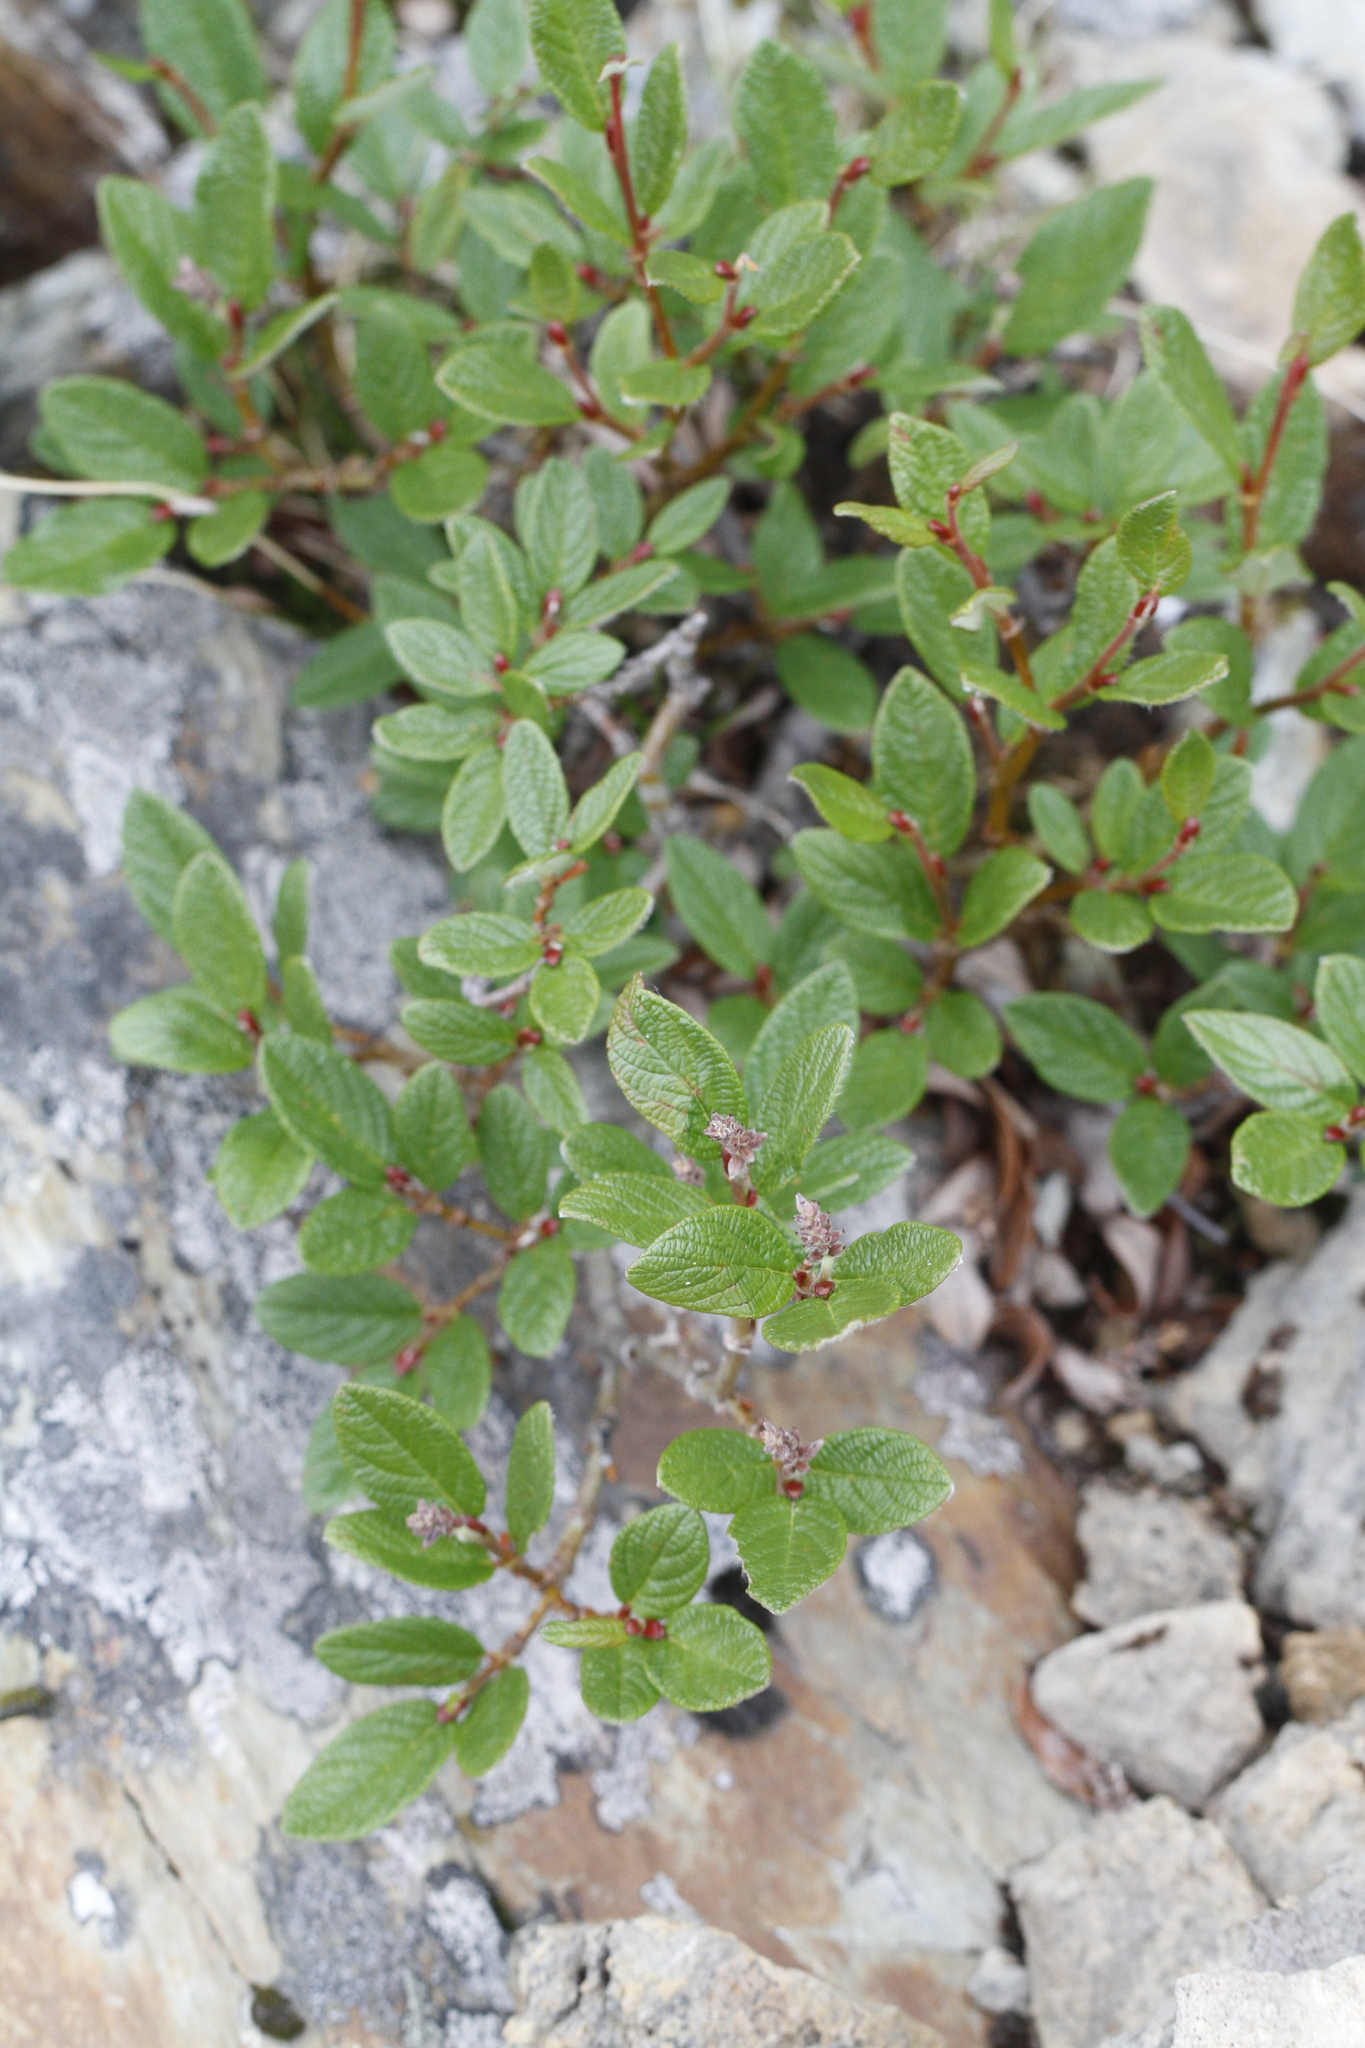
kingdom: Plantae
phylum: Tracheophyta
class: Magnoliopsida
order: Malpighiales
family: Salicaceae
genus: Salix
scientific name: Salix vestita
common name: Hairy willow
